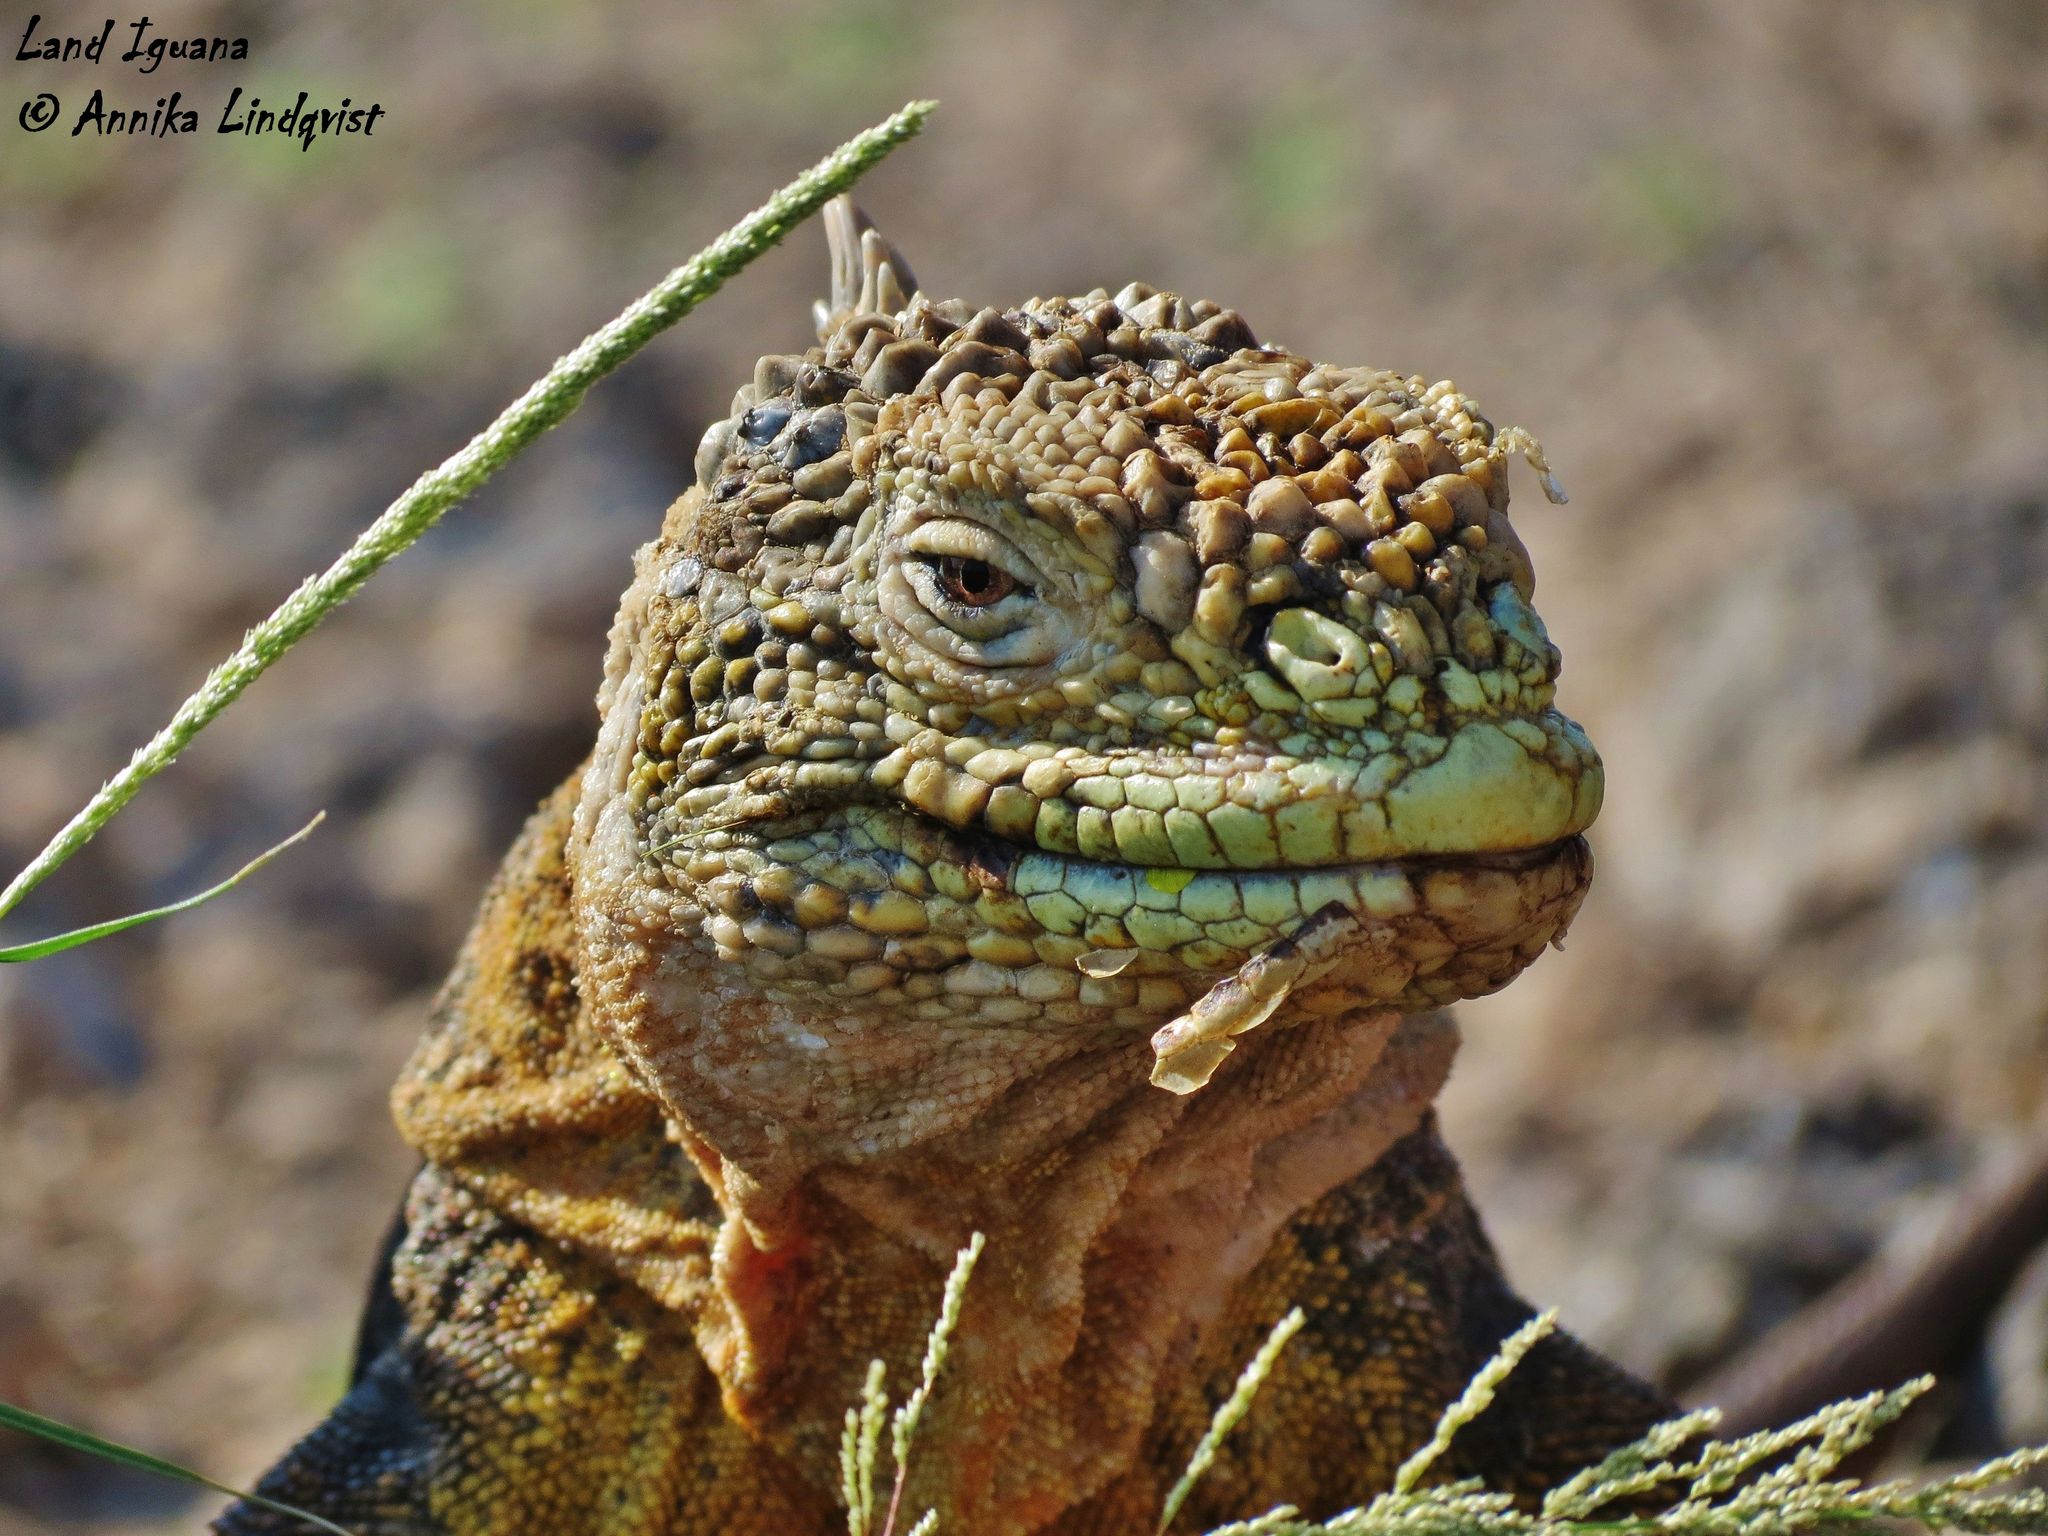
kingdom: Animalia
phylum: Chordata
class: Squamata
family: Iguanidae
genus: Conolophus
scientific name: Conolophus subcristatus
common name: Galapagos land iguana
